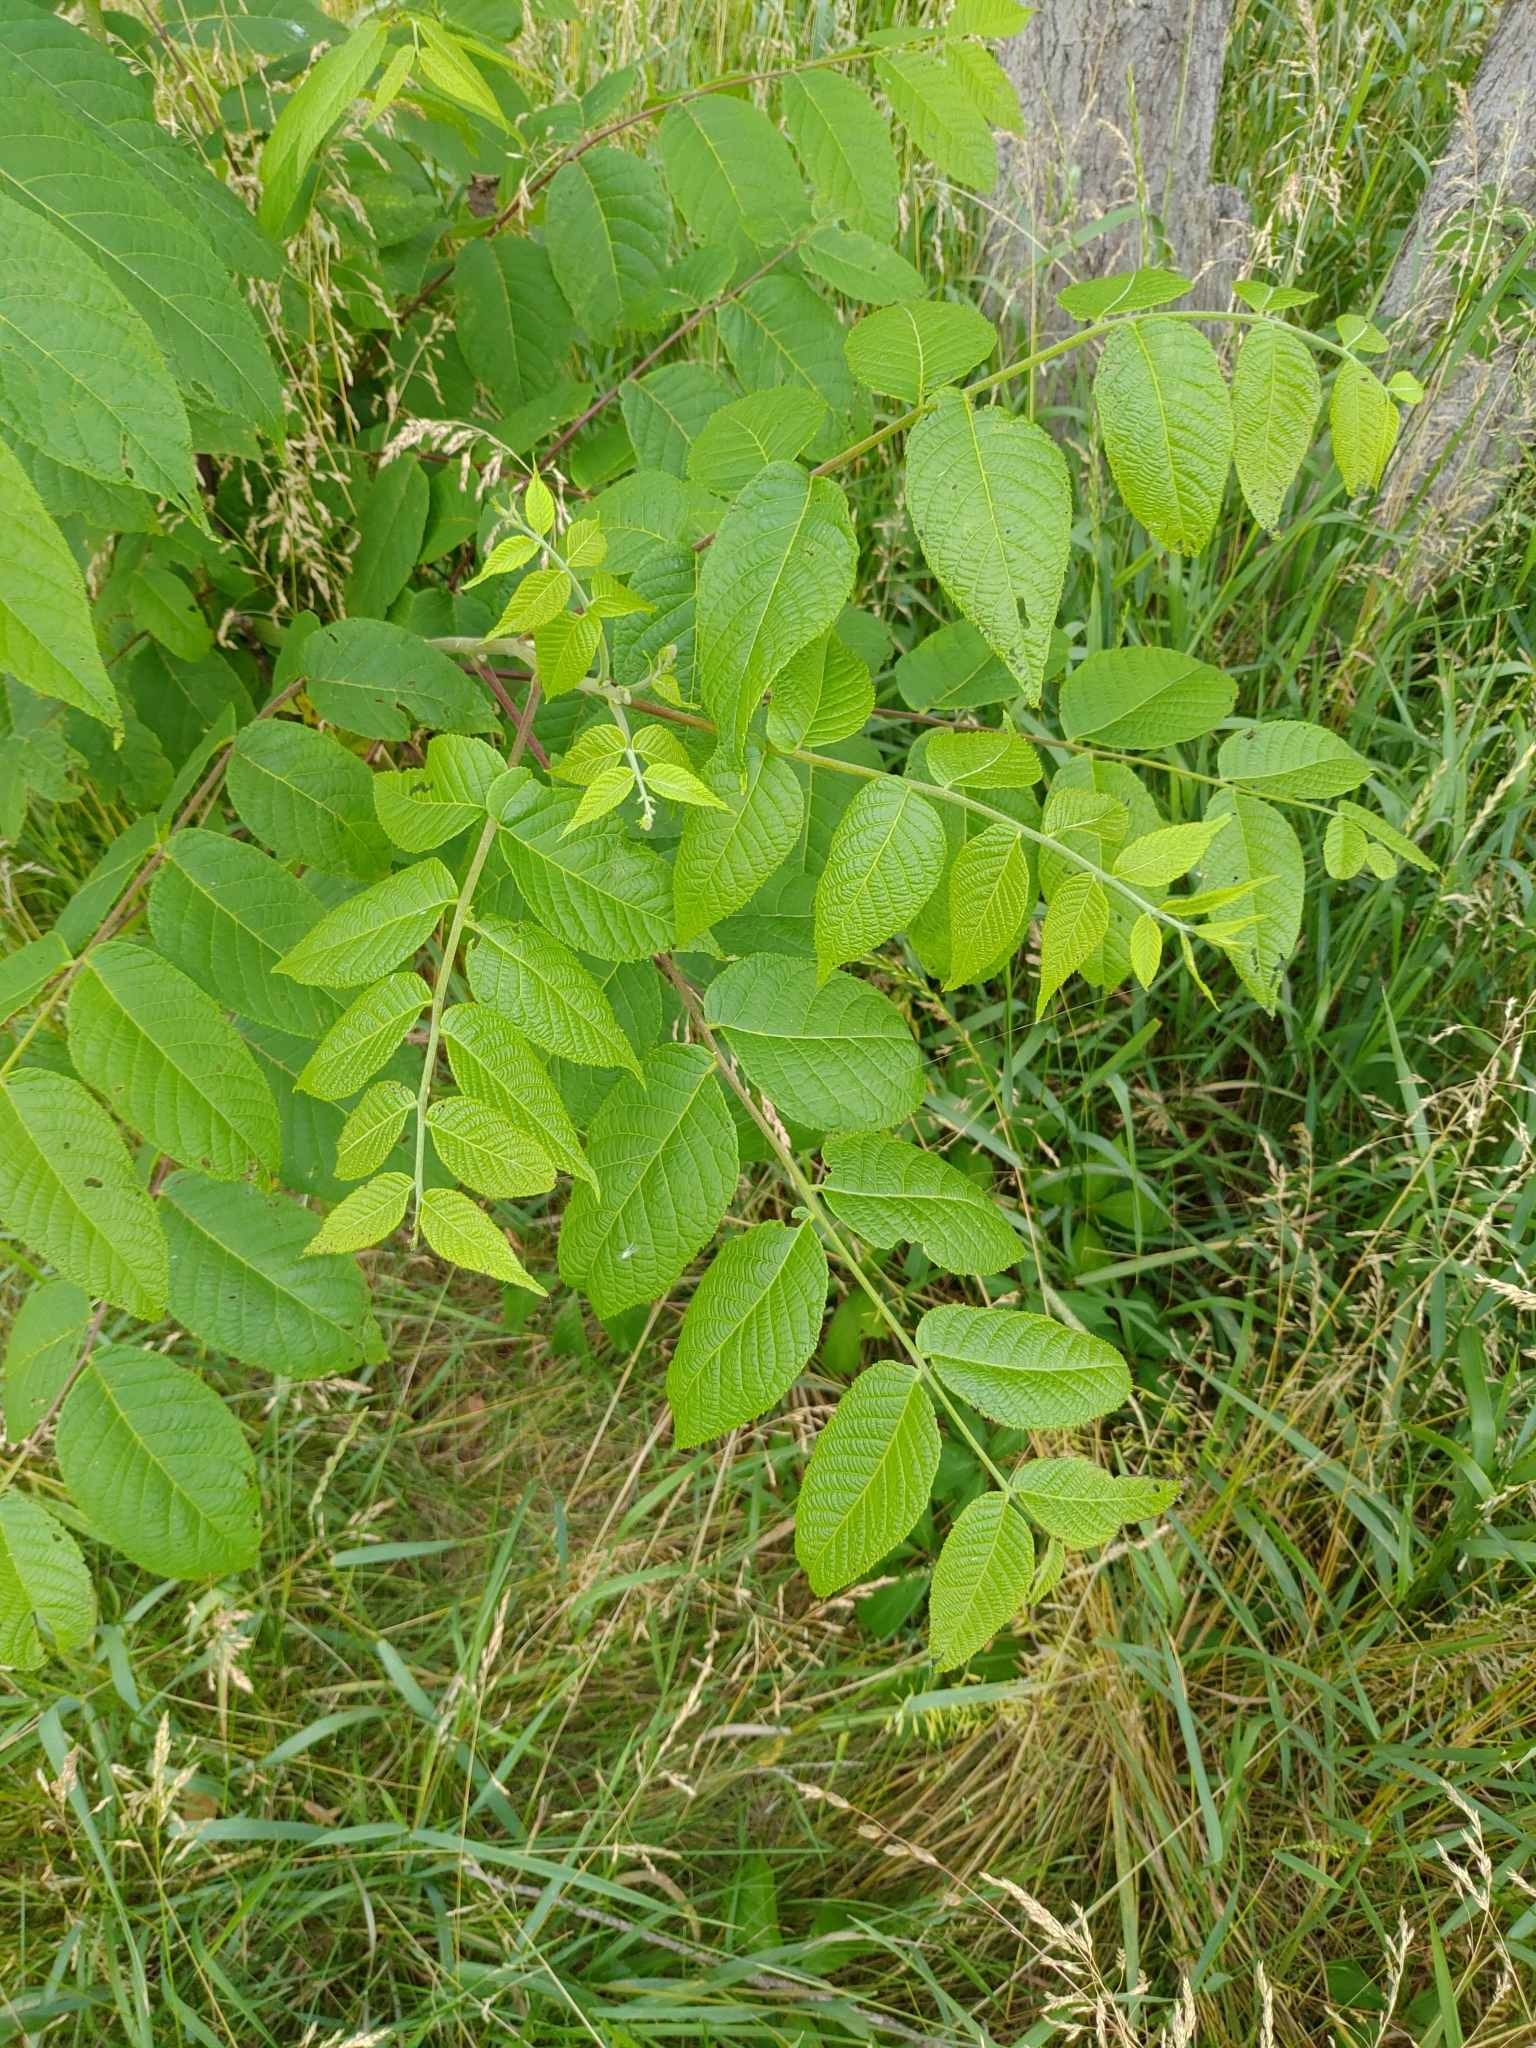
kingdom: Plantae
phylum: Tracheophyta
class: Magnoliopsida
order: Fagales
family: Juglandaceae
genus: Juglans
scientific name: Juglans nigra
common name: Black walnut
